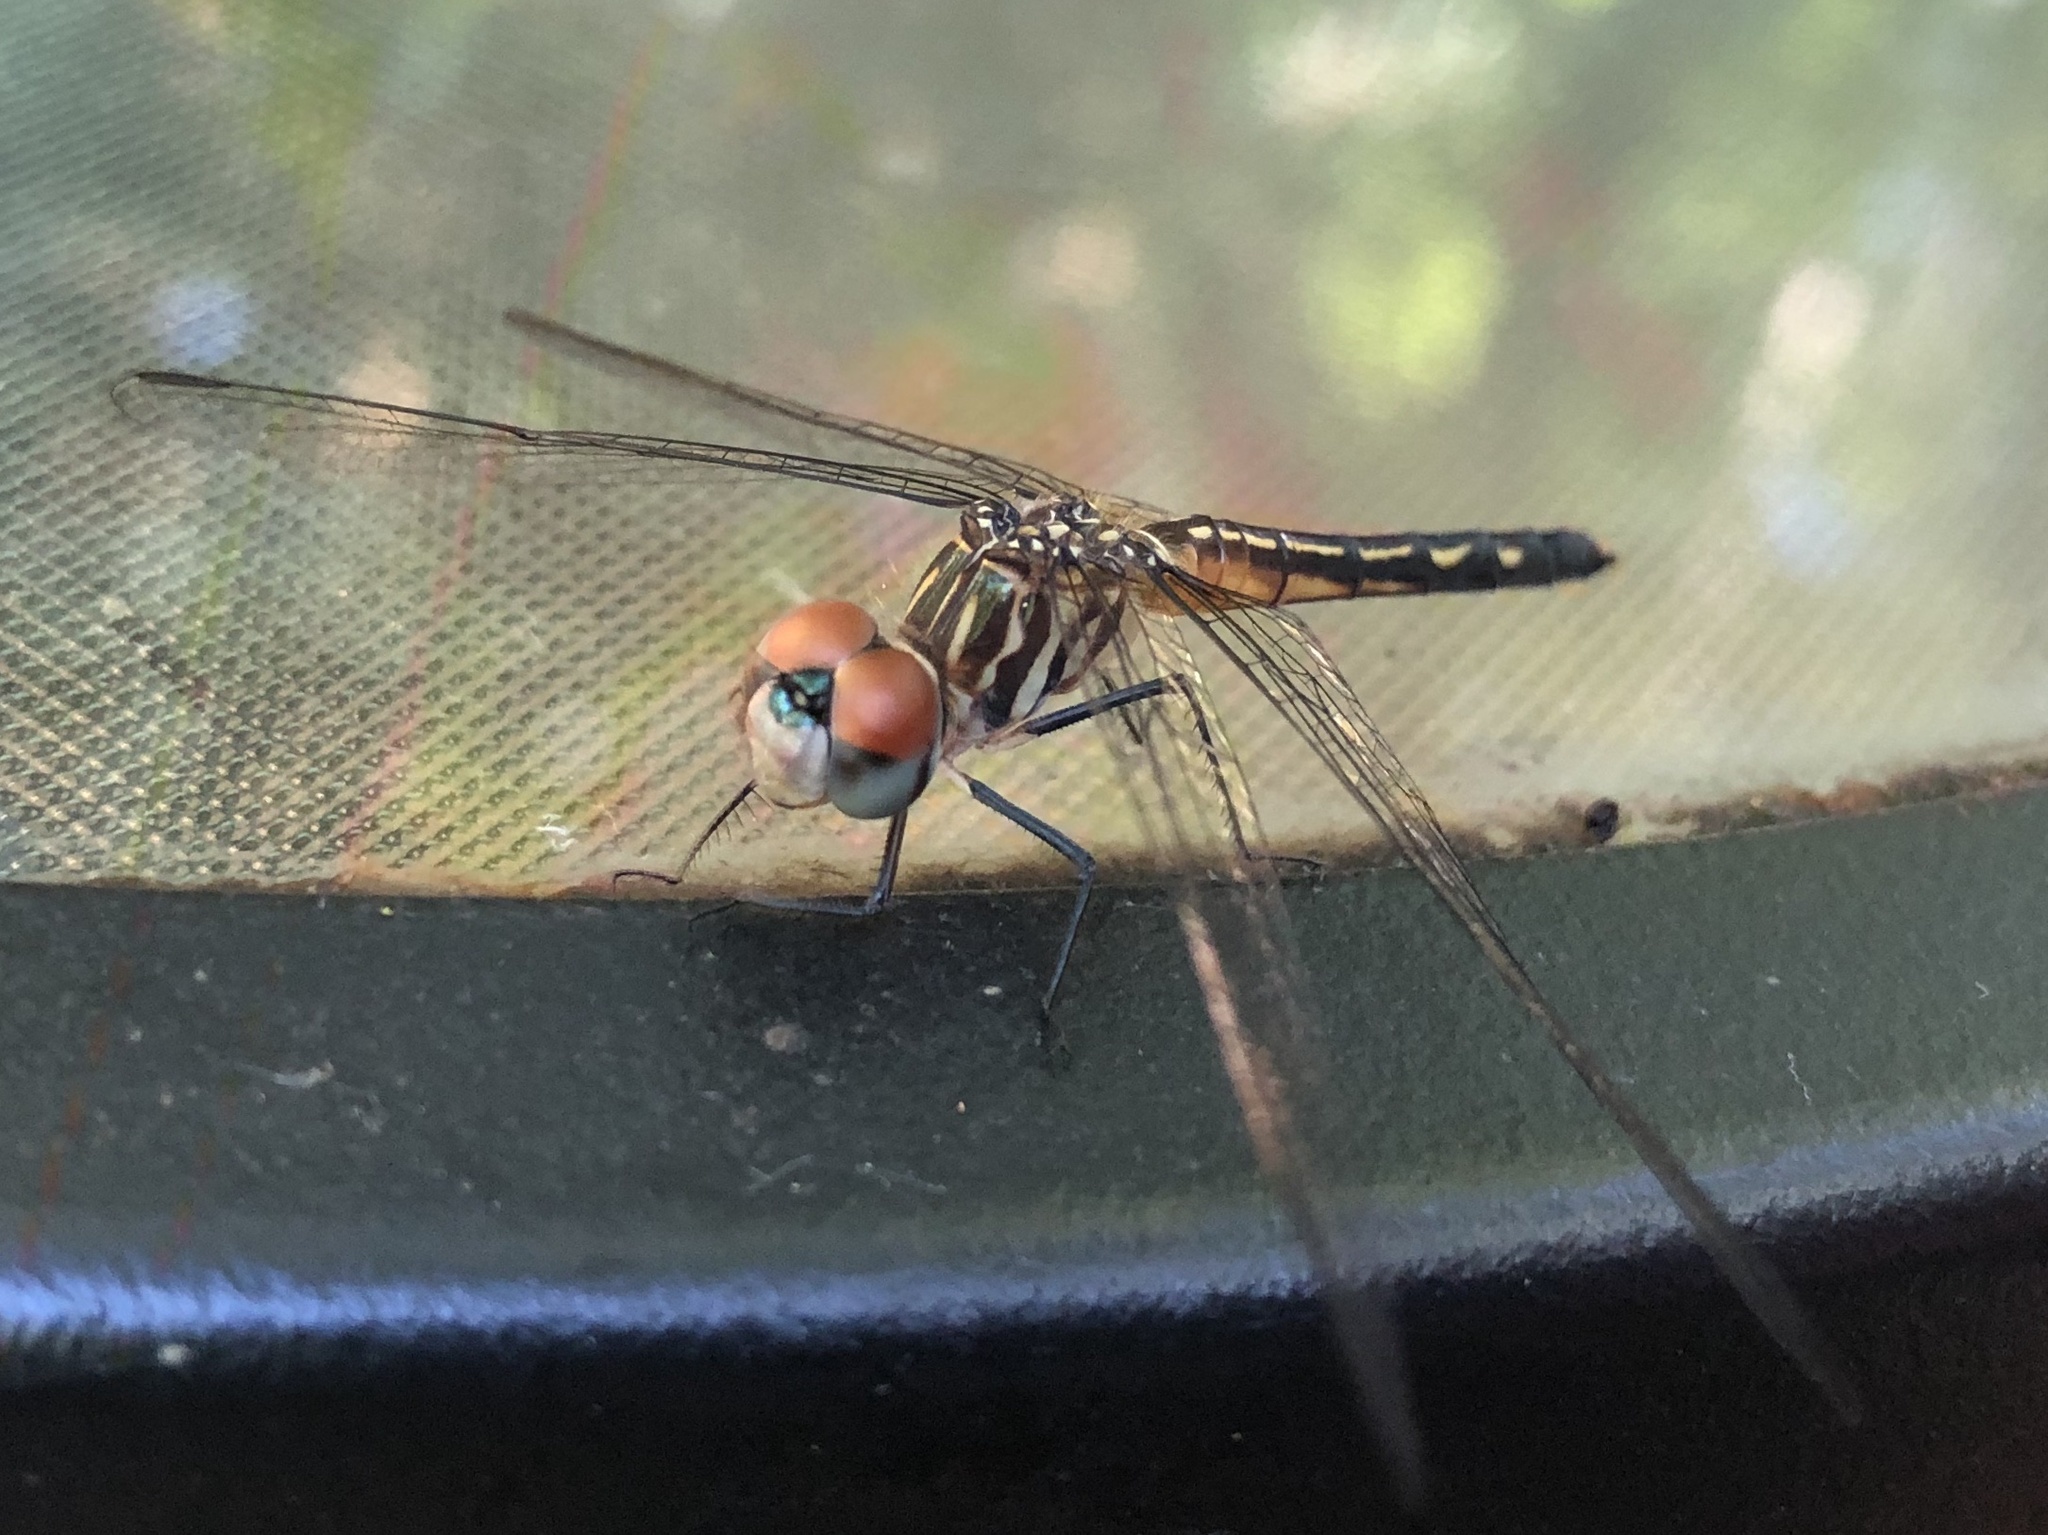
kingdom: Animalia
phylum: Arthropoda
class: Insecta
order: Odonata
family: Libellulidae
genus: Pachydiplax
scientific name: Pachydiplax longipennis
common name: Blue dasher
